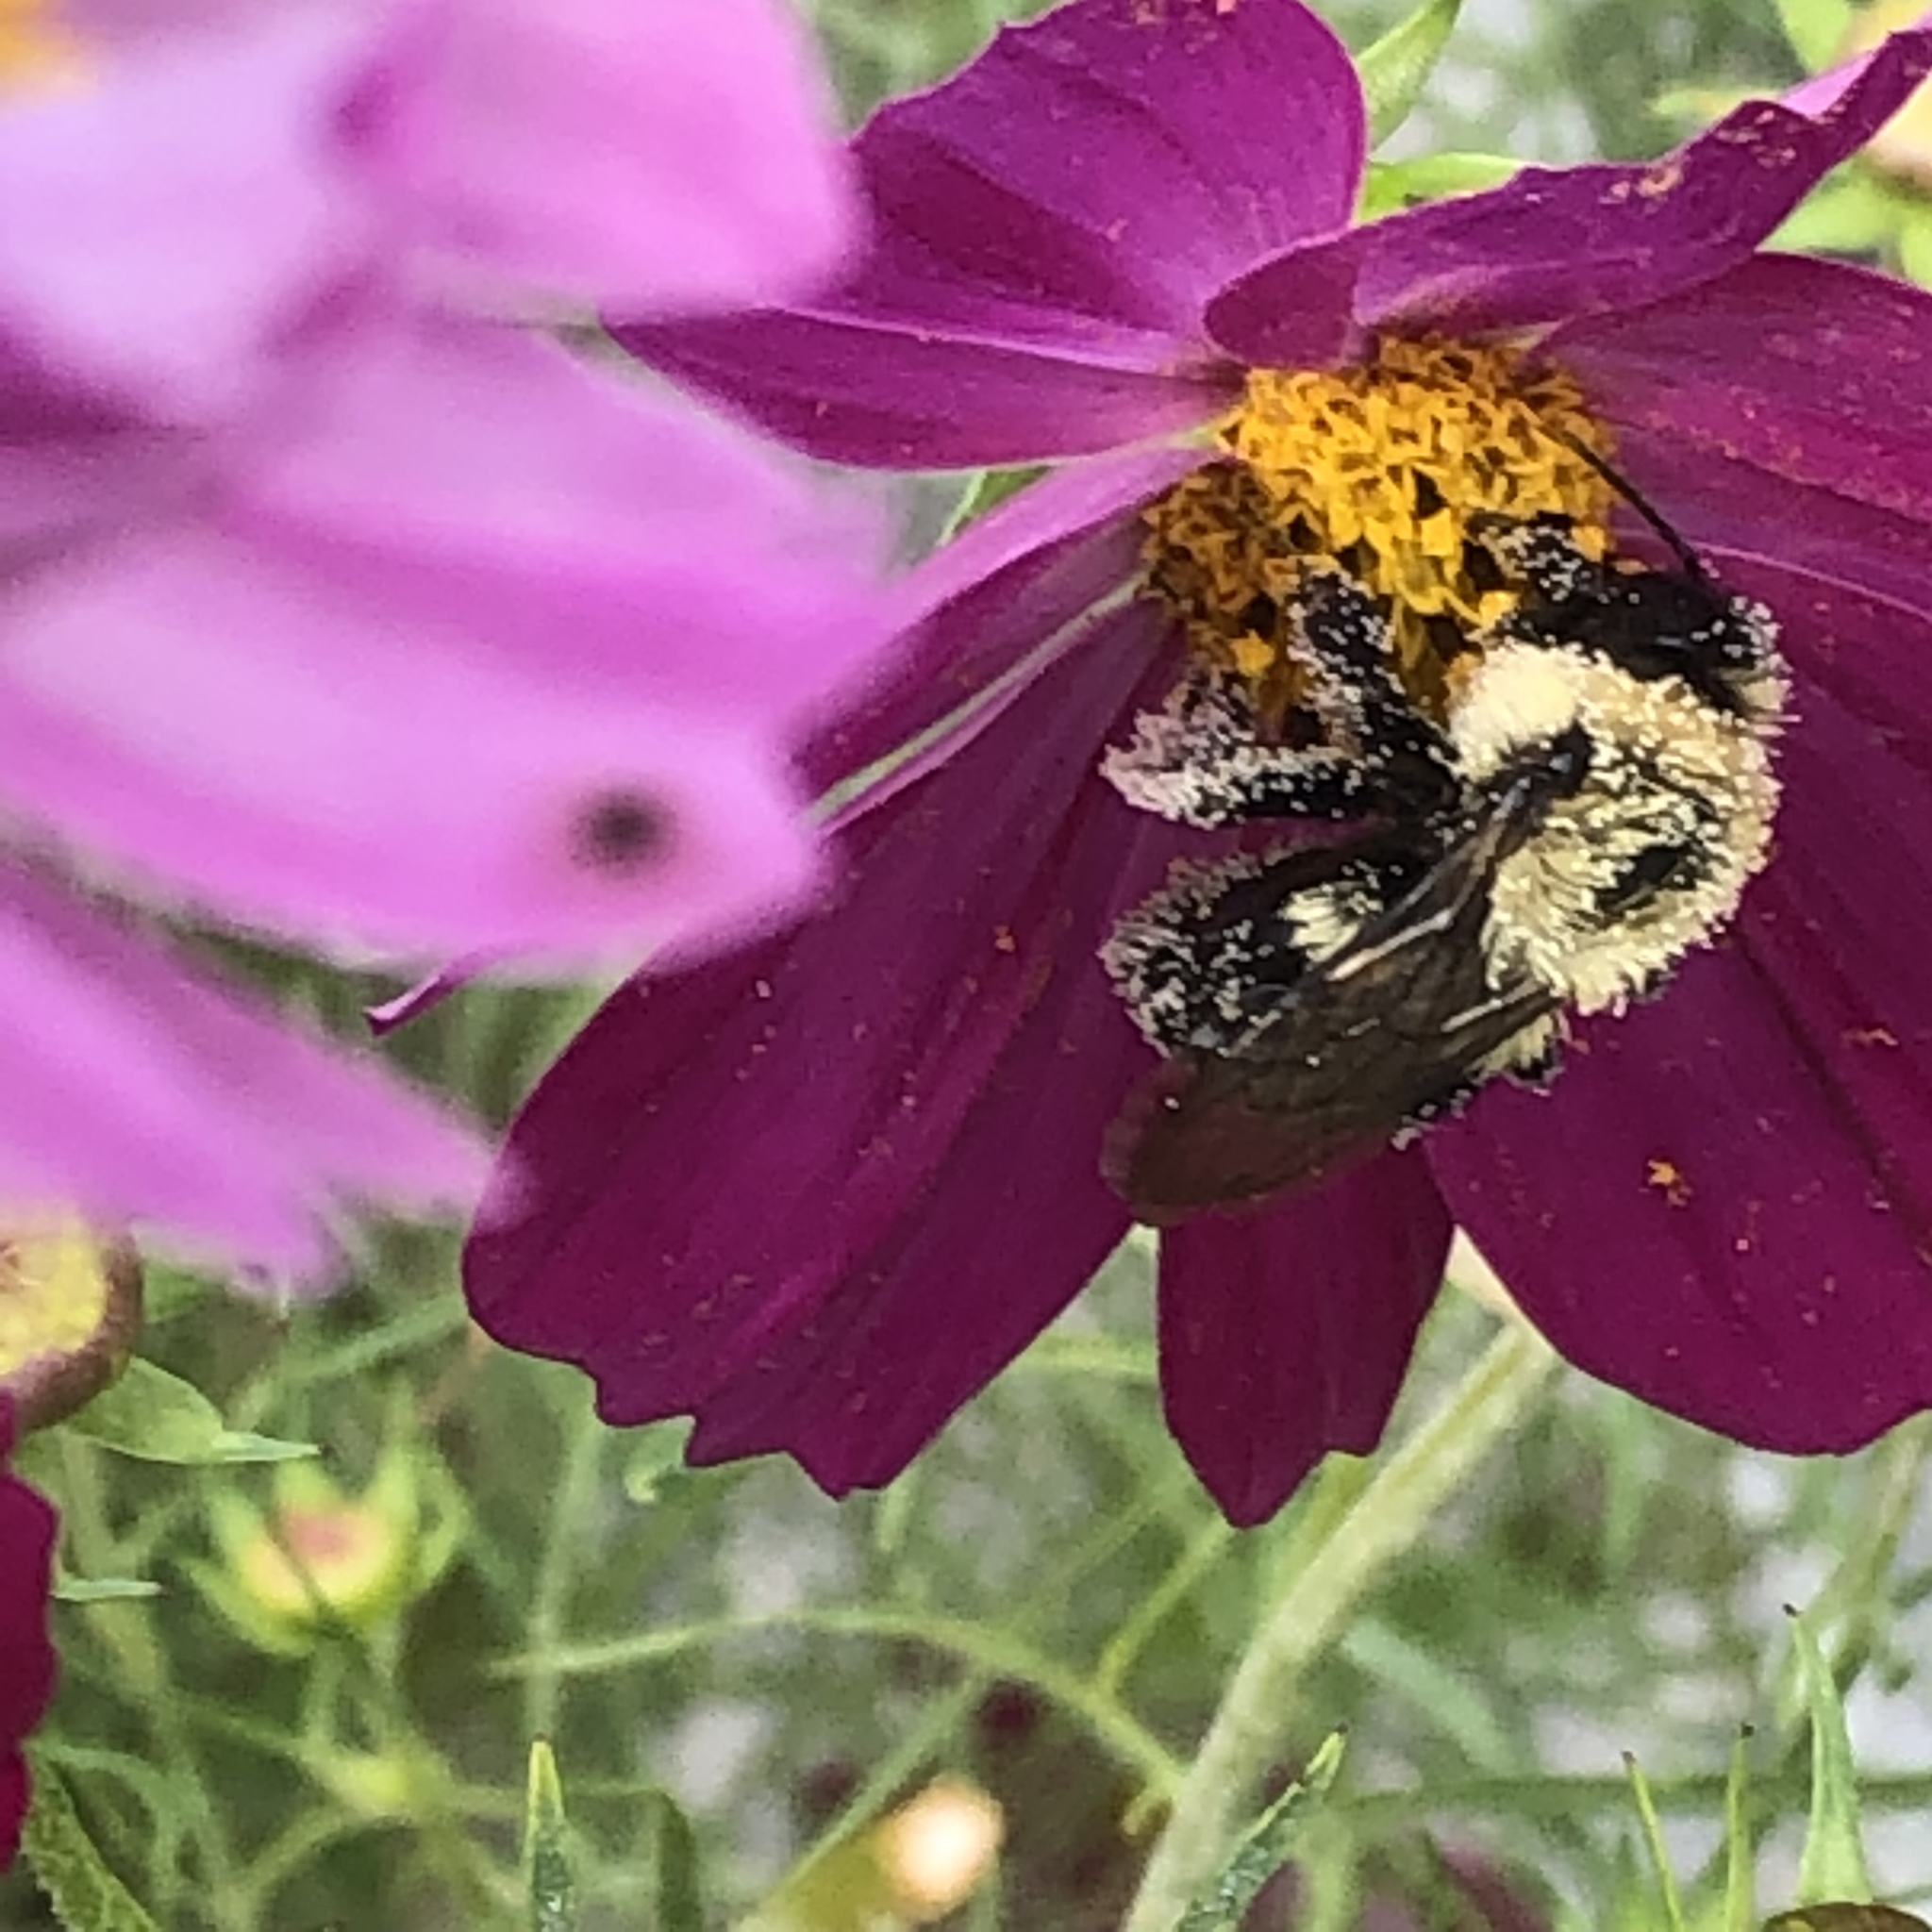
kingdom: Animalia
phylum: Arthropoda
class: Insecta
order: Hymenoptera
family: Apidae
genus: Bombus
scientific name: Bombus impatiens
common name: Common eastern bumble bee
